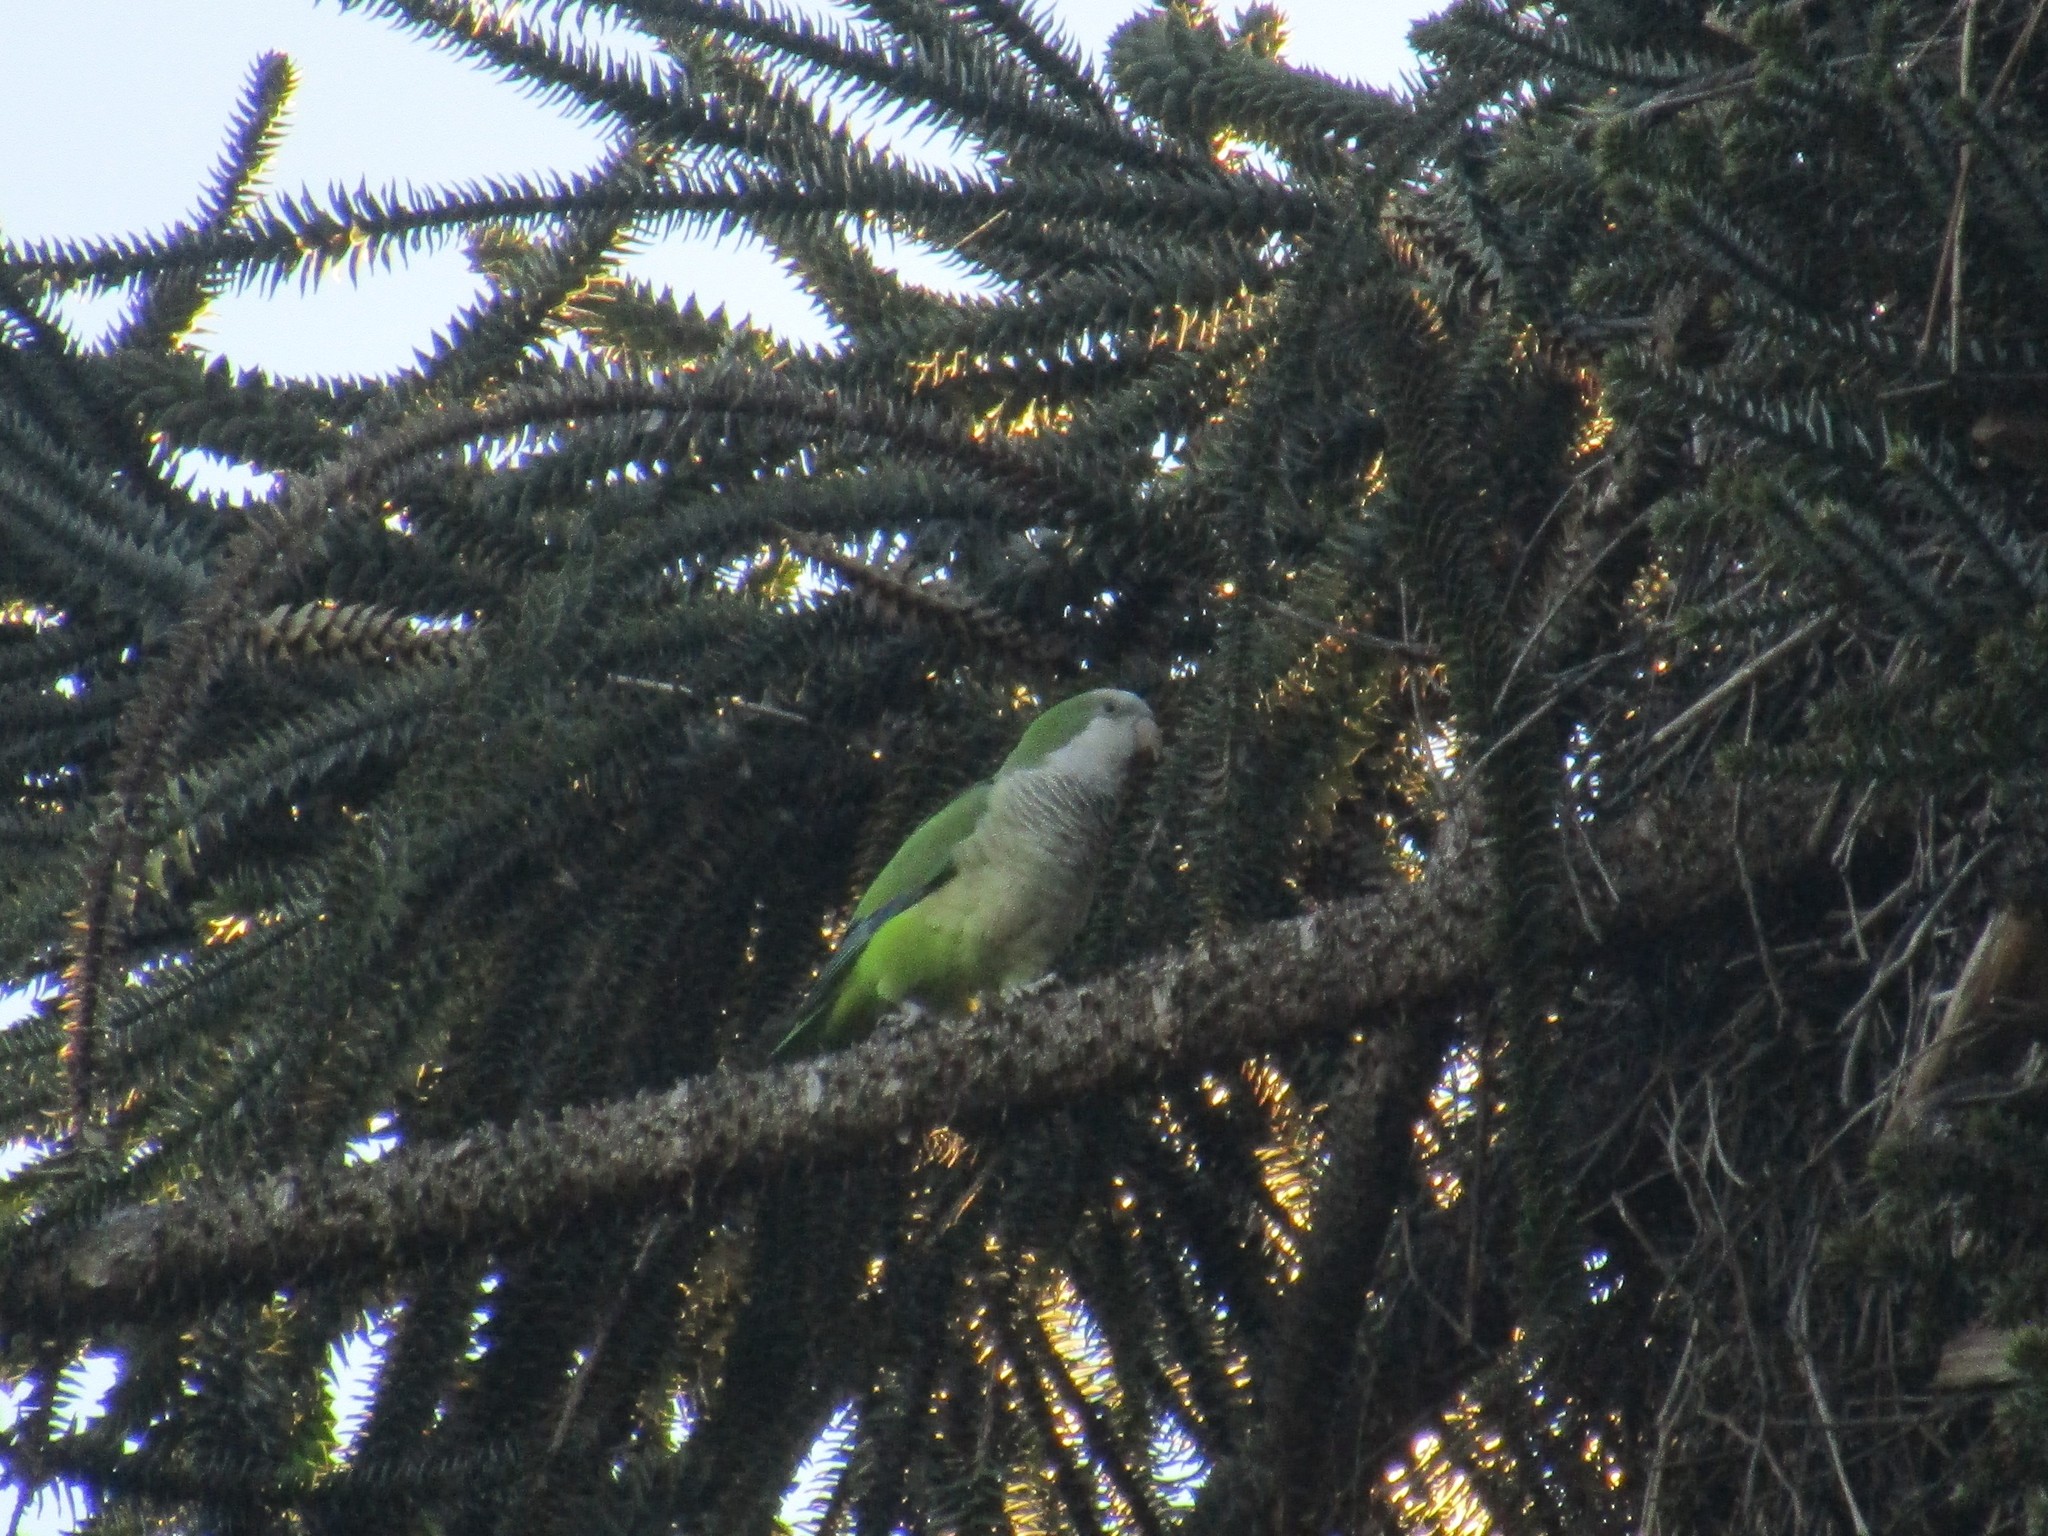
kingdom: Animalia
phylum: Chordata
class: Aves
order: Psittaciformes
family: Psittacidae
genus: Myiopsitta
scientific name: Myiopsitta monachus
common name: Monk parakeet
